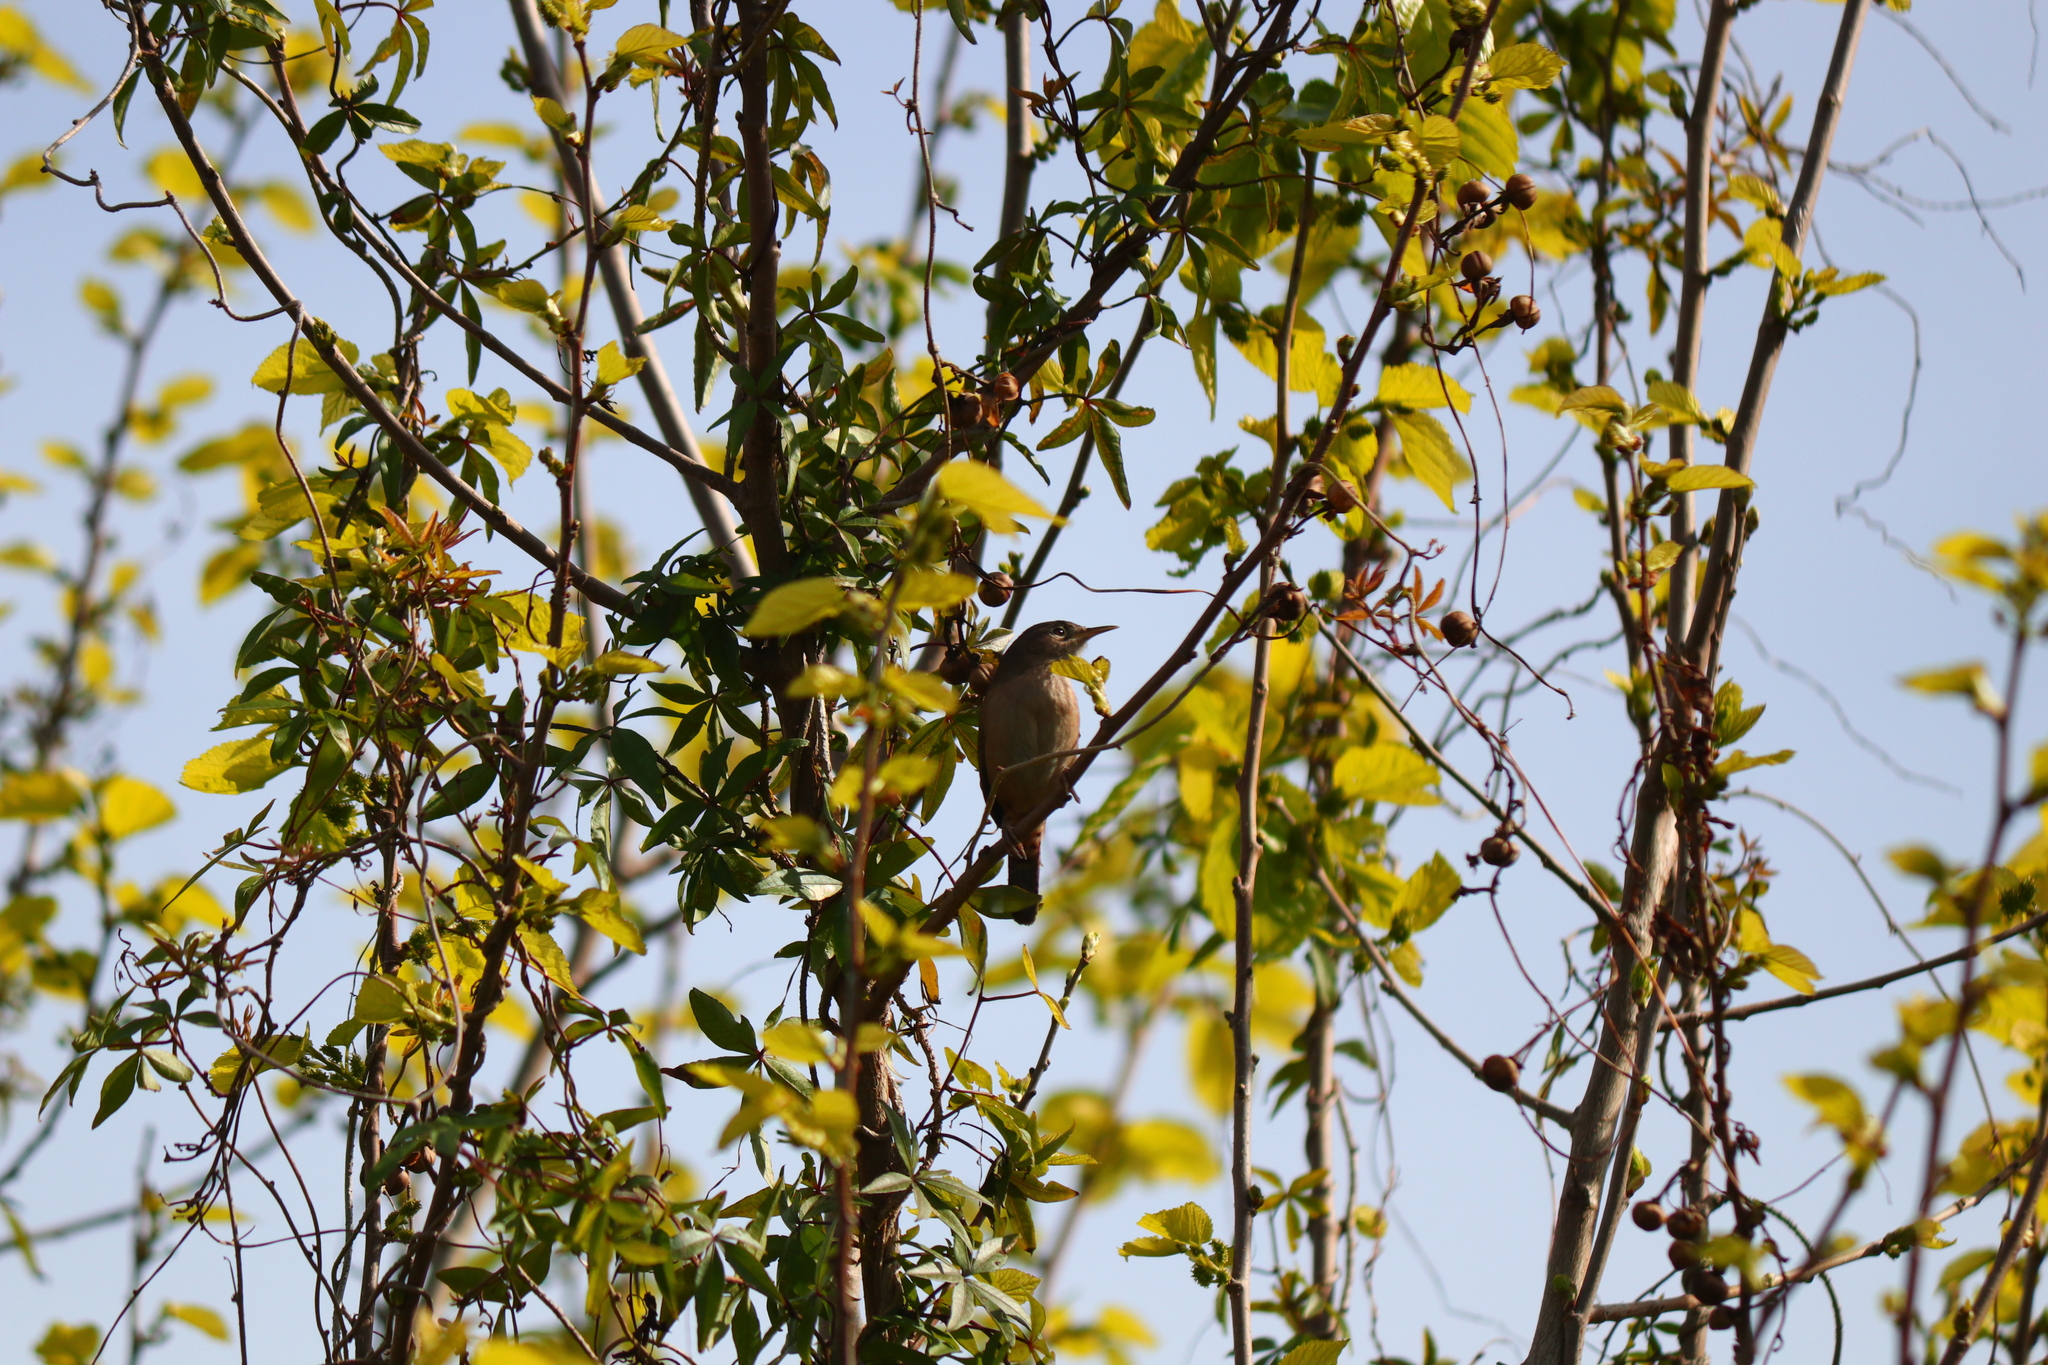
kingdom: Animalia
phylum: Chordata
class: Aves
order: Passeriformes
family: Troglodytidae
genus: Troglodytes
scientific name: Troglodytes aedon
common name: House wren
